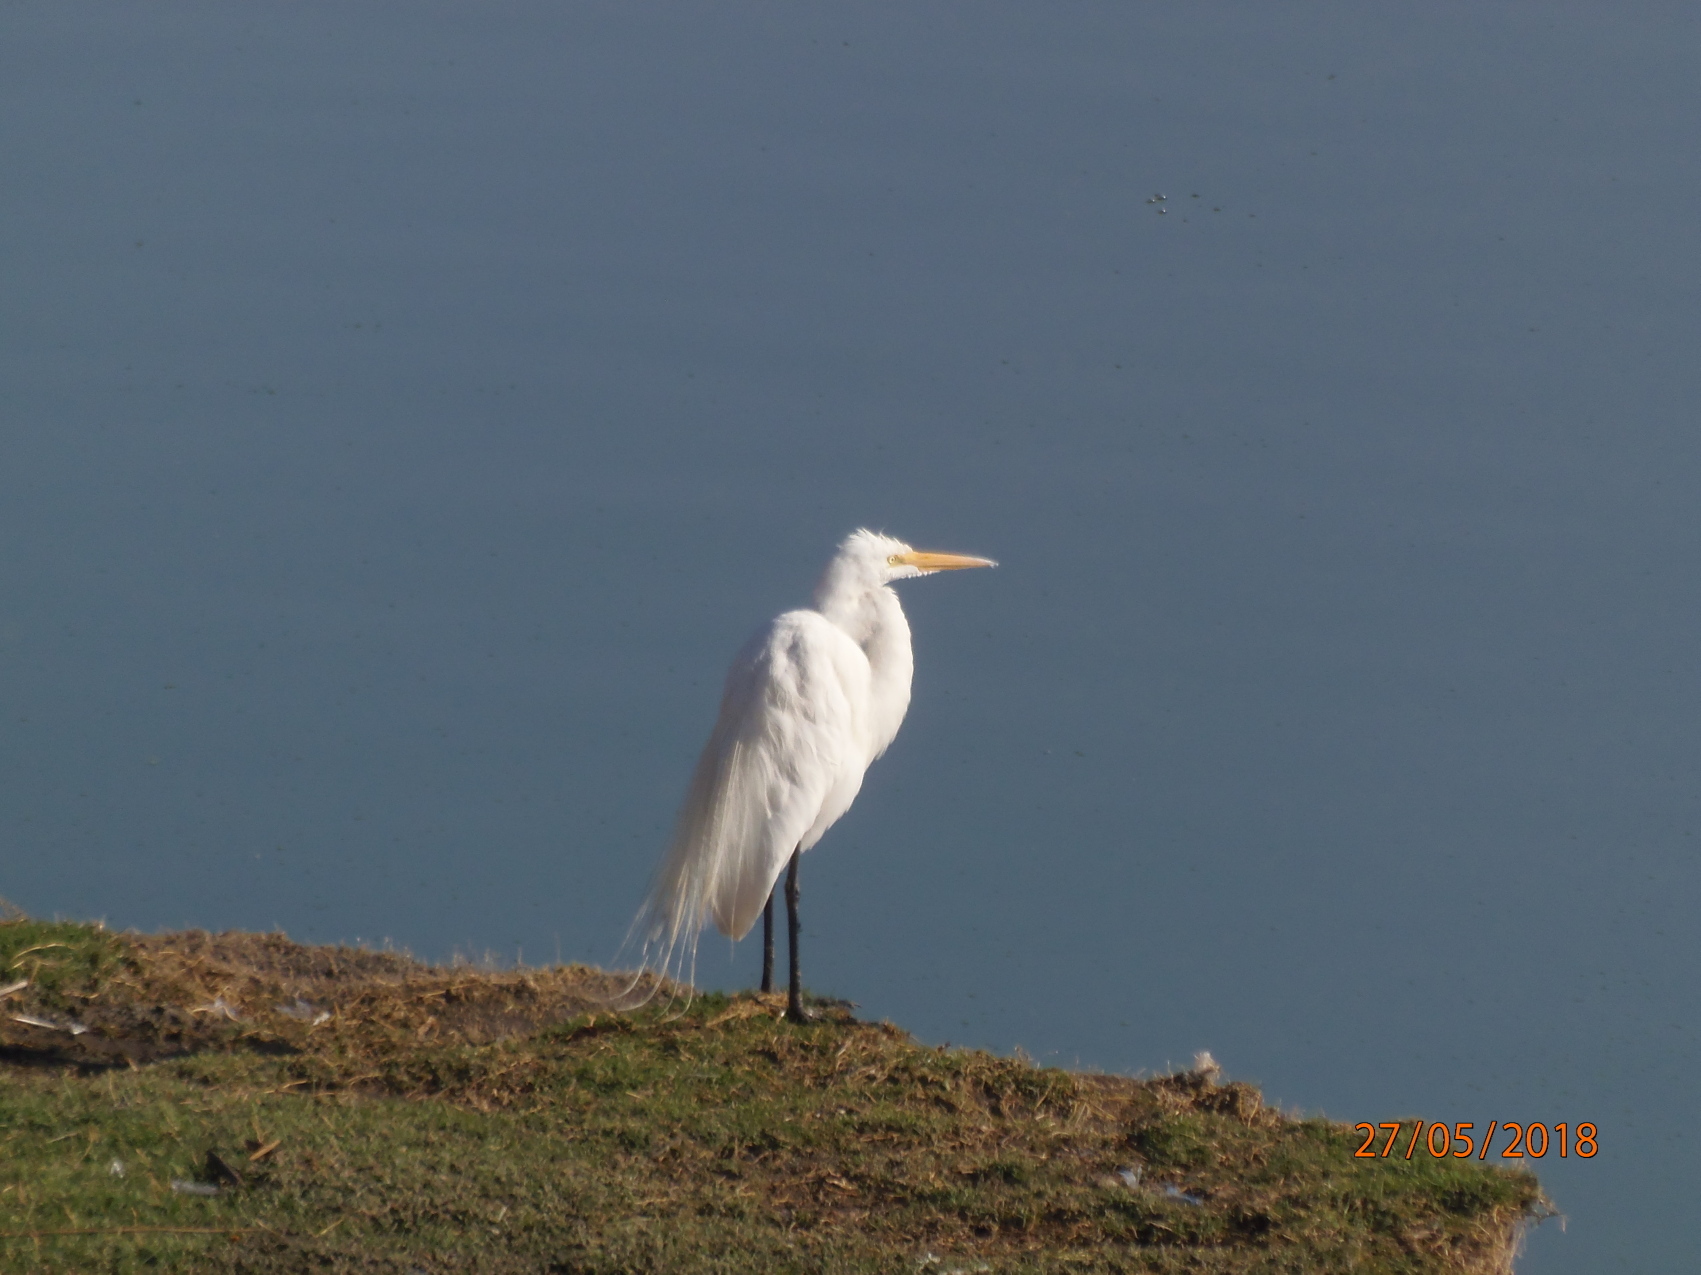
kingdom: Animalia
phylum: Chordata
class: Aves
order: Pelecaniformes
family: Ardeidae
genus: Ardea
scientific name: Ardea alba
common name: Great egret
